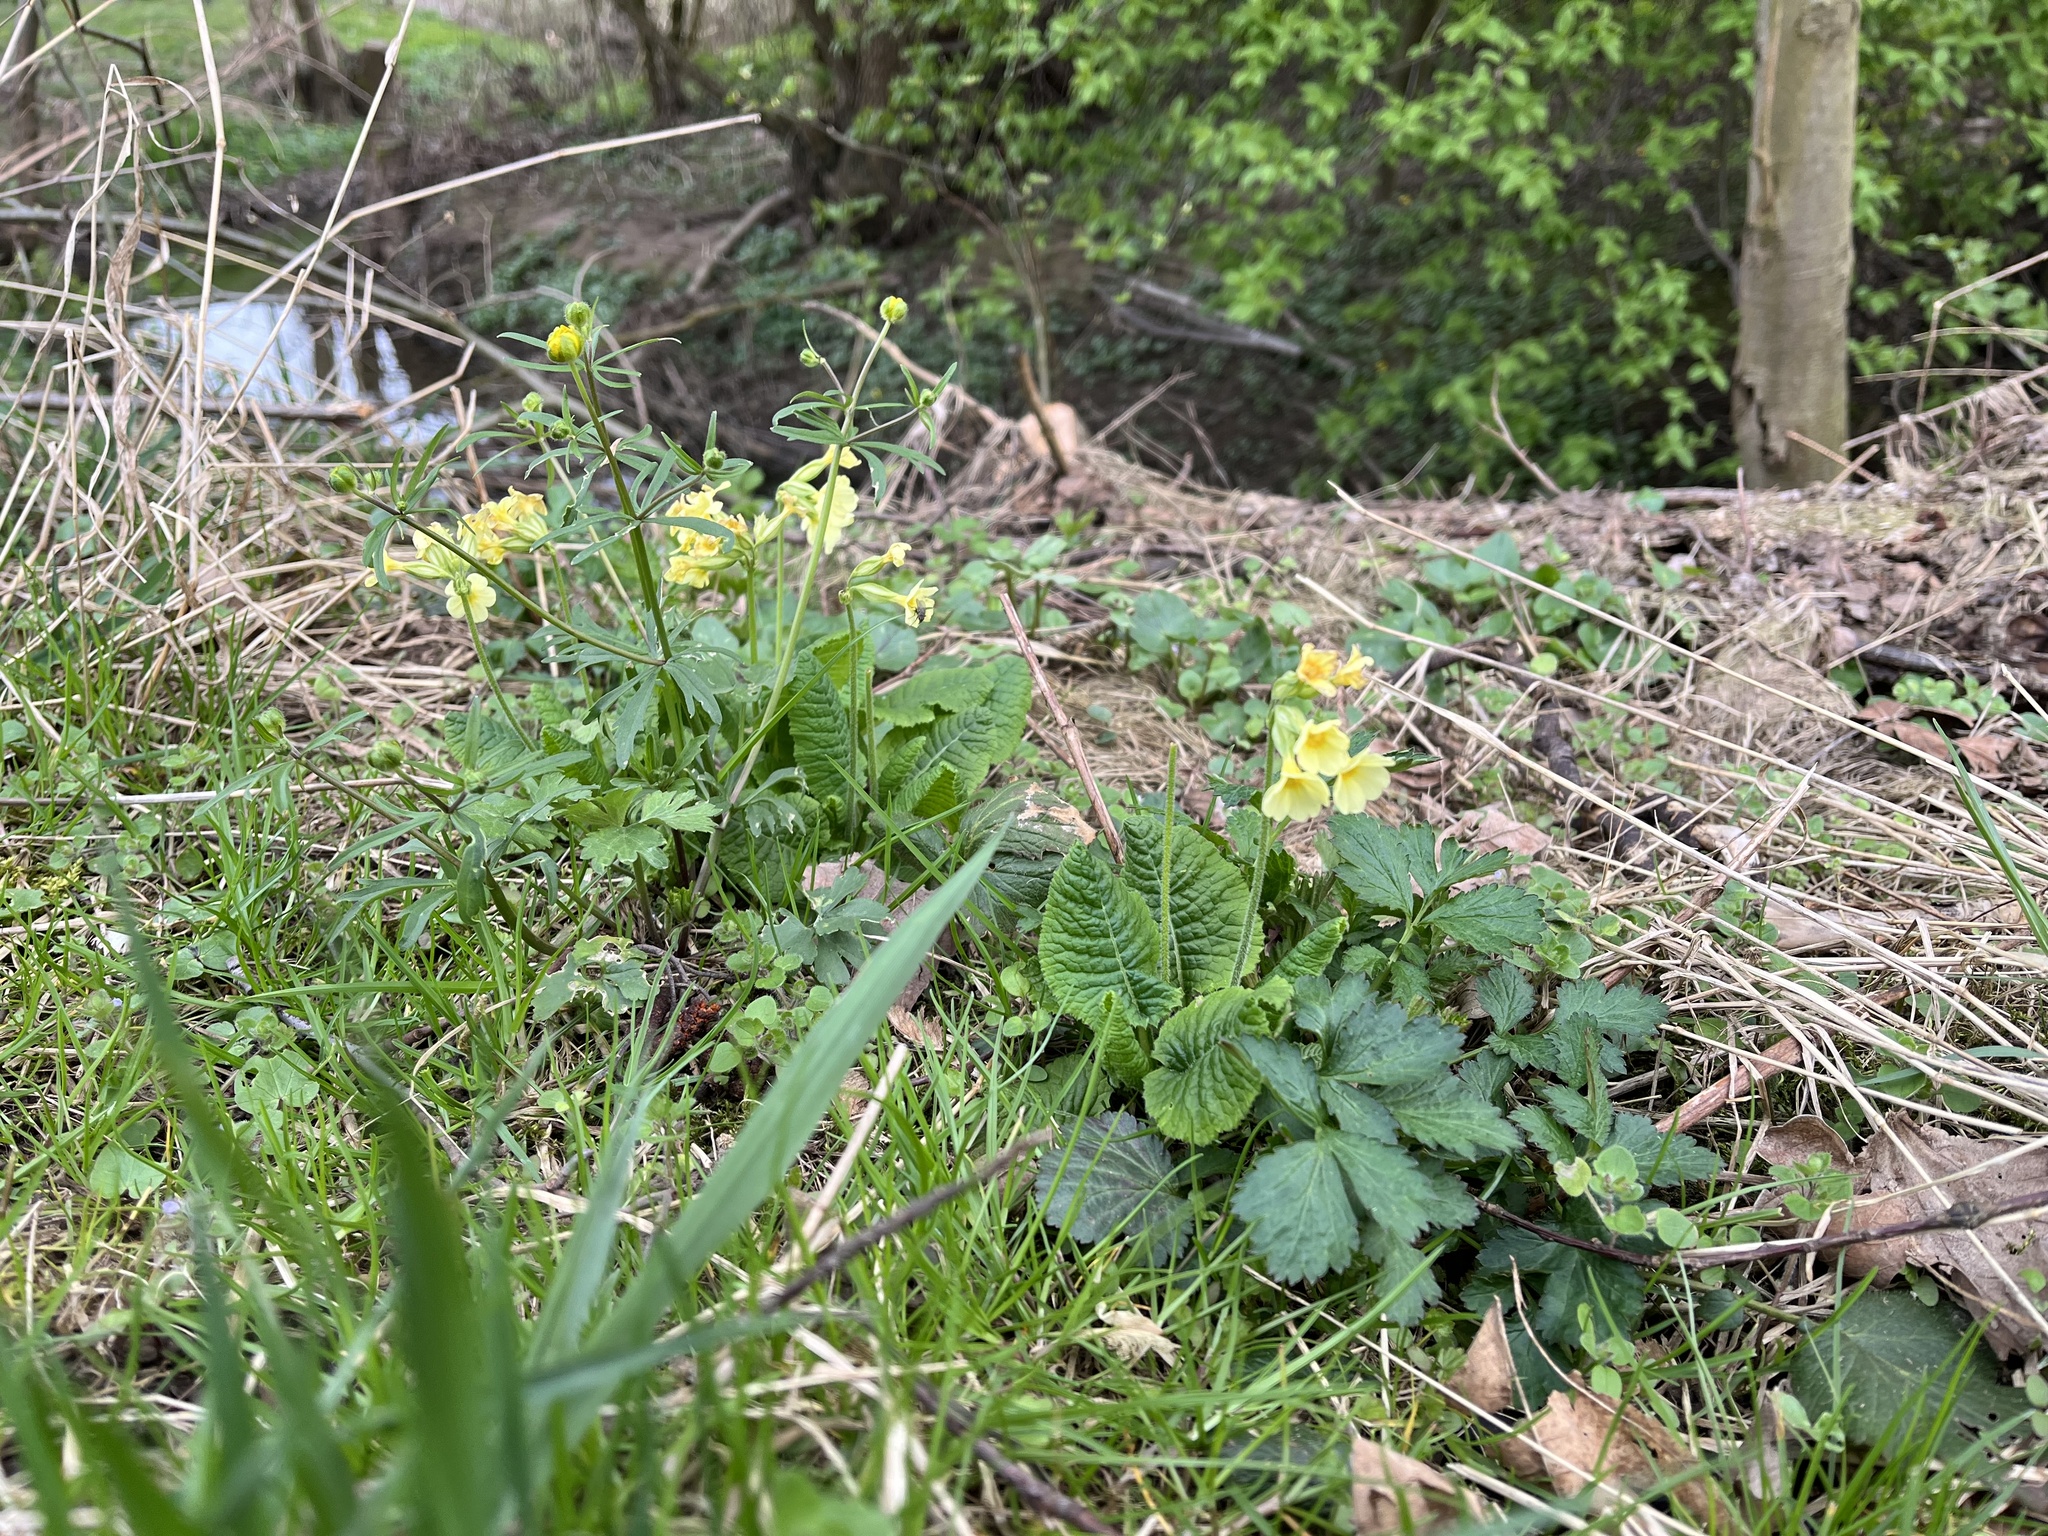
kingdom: Plantae
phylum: Tracheophyta
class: Magnoliopsida
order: Ericales
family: Primulaceae
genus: Primula
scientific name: Primula elatior
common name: Oxlip
